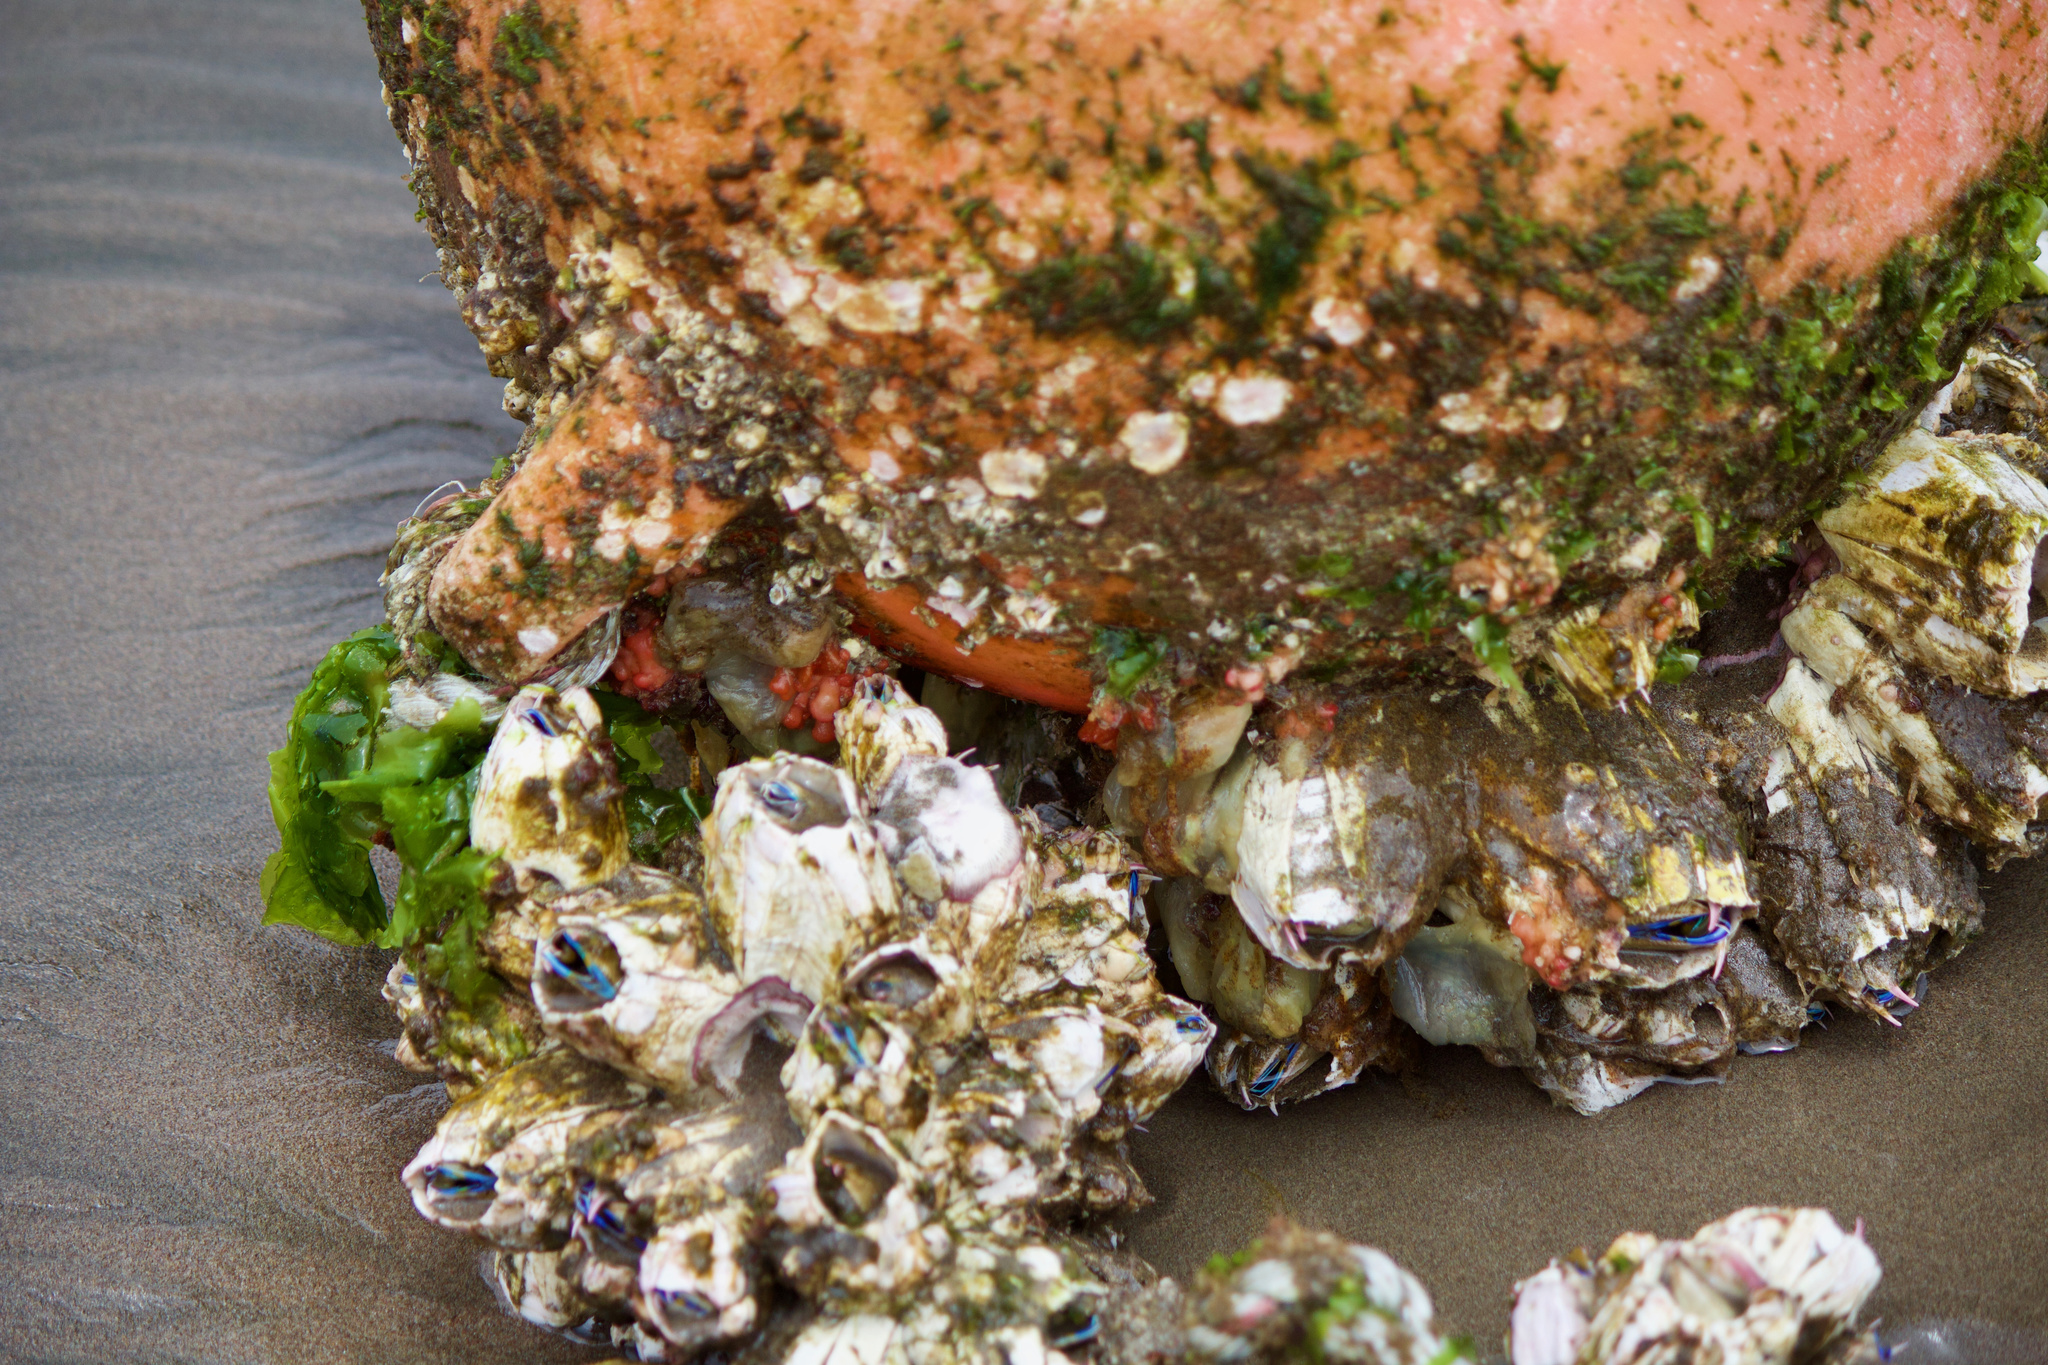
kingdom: Animalia
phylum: Arthropoda
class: Maxillopoda
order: Sessilia
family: Balanidae
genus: Austromegabalanus
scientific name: Austromegabalanus psittacus
